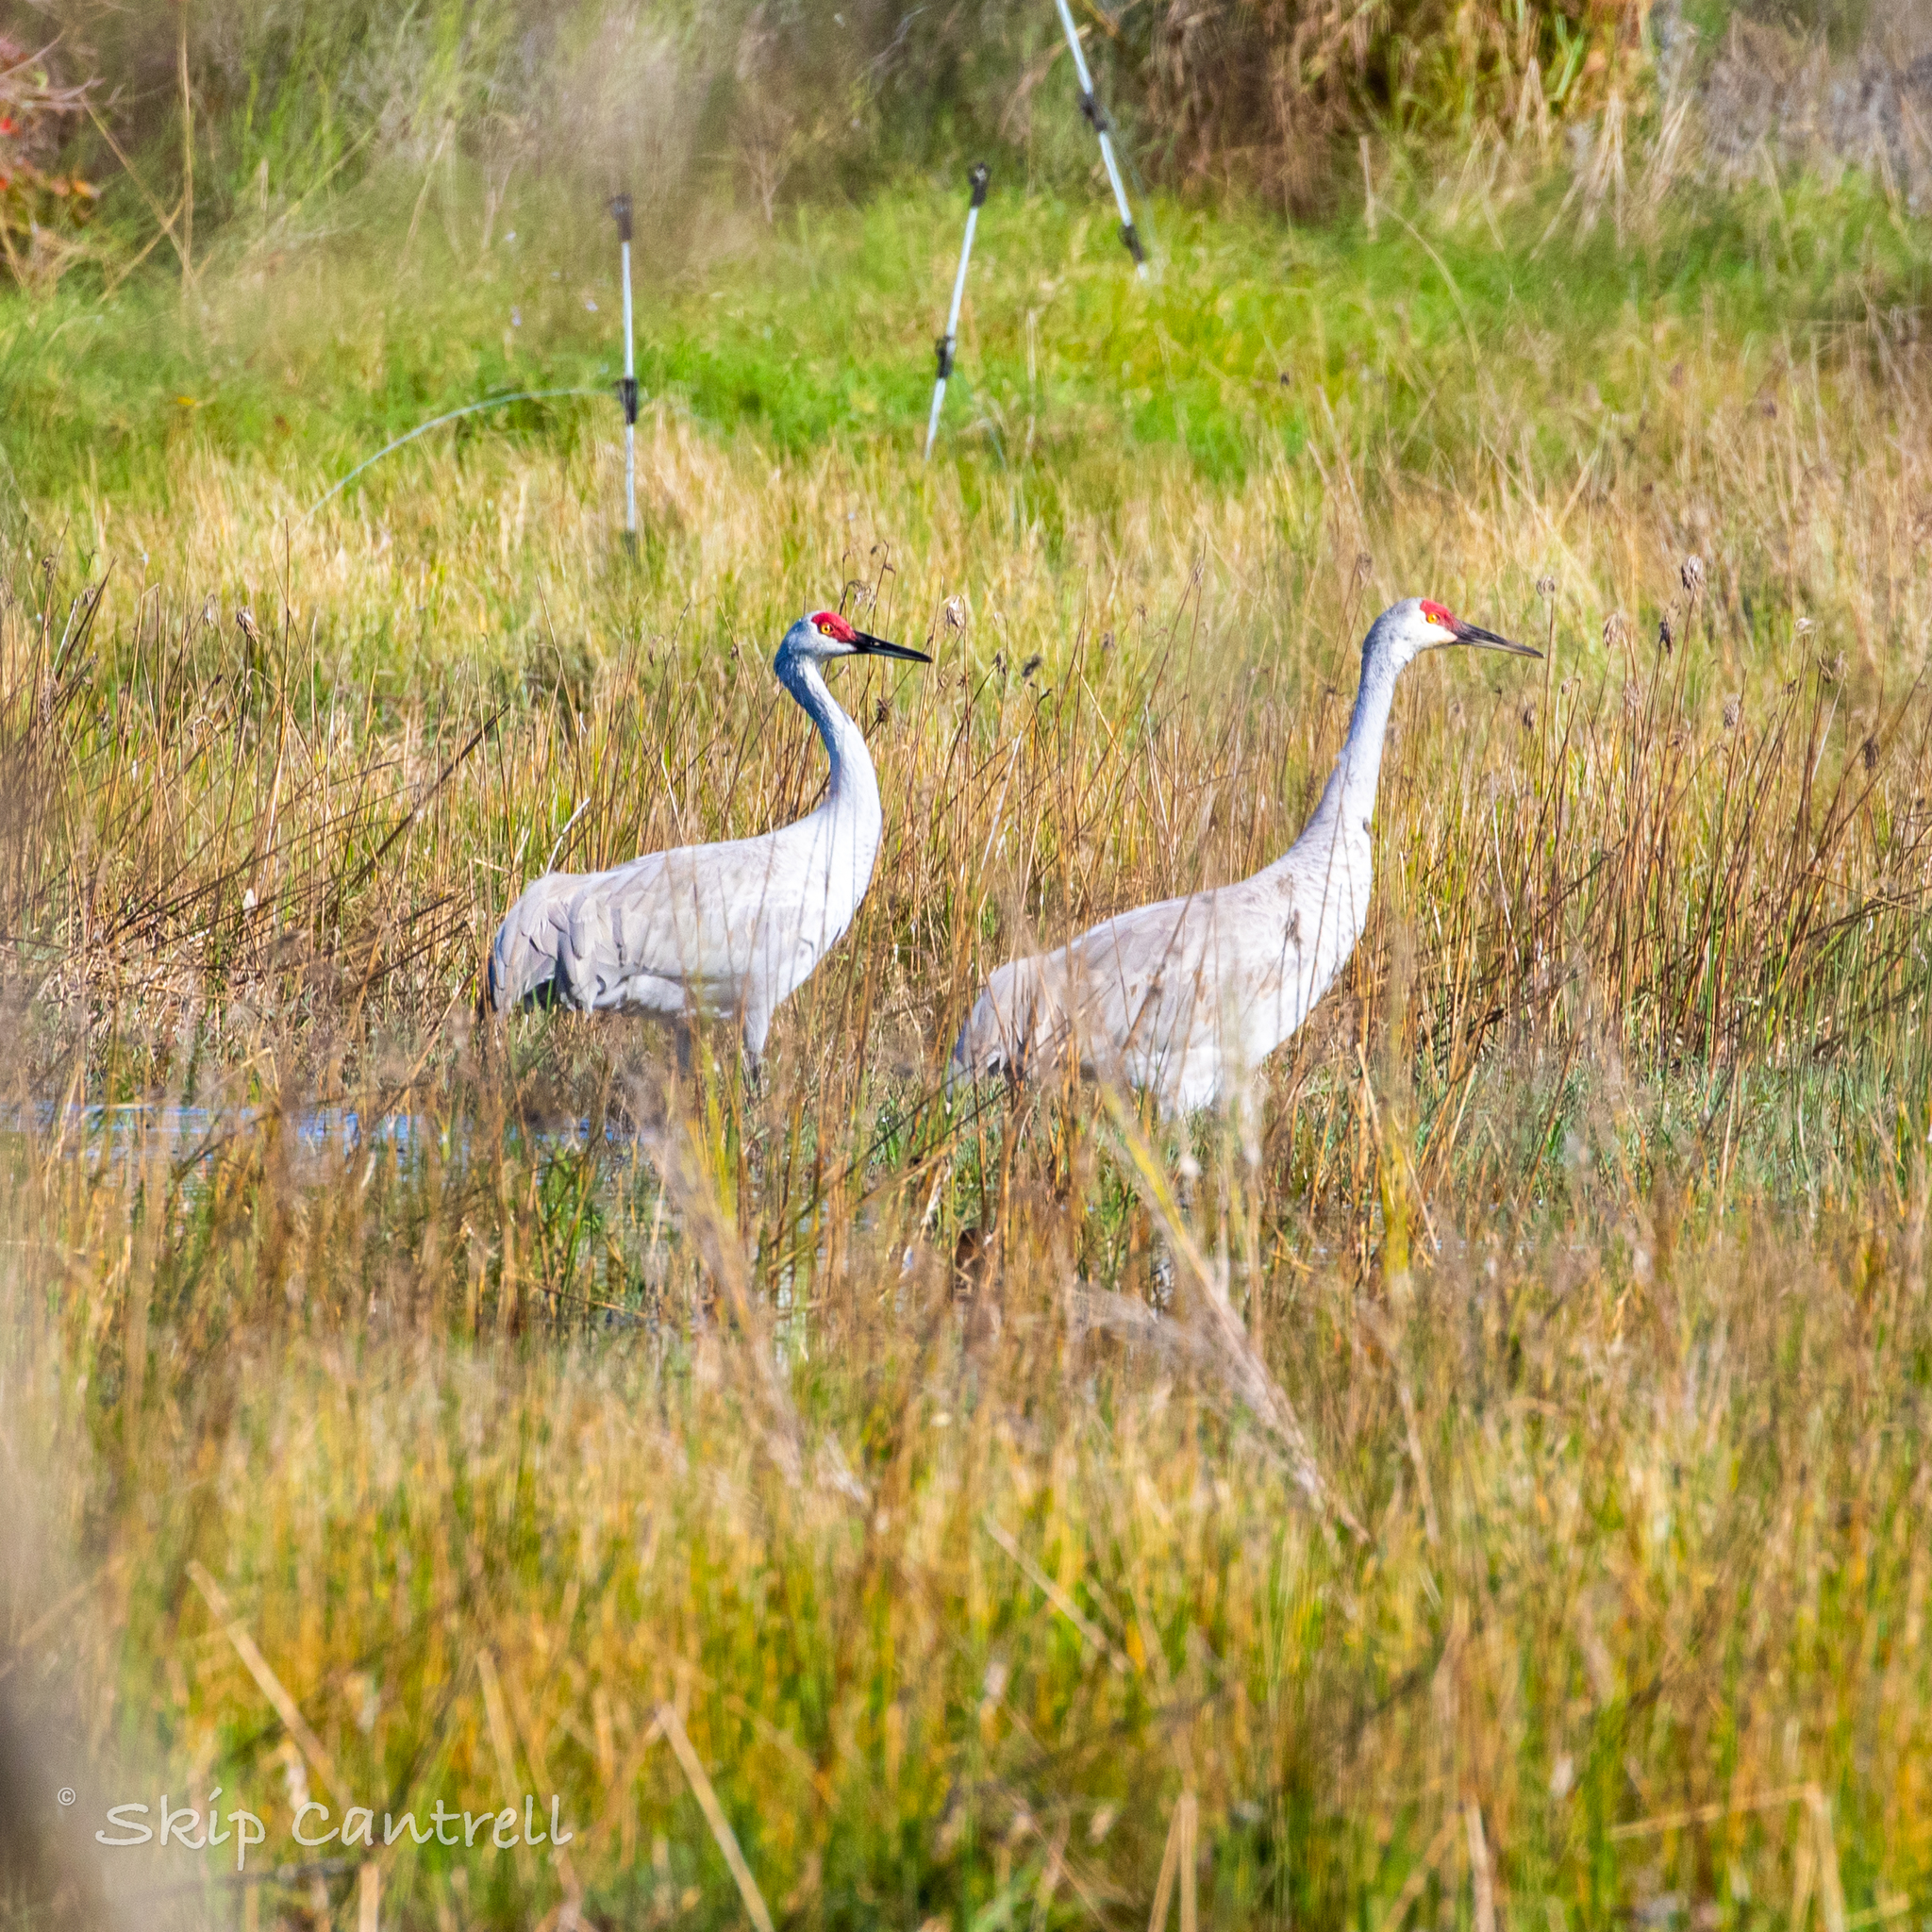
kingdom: Animalia
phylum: Chordata
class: Aves
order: Gruiformes
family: Gruidae
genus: Grus
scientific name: Grus canadensis
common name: Sandhill crane
